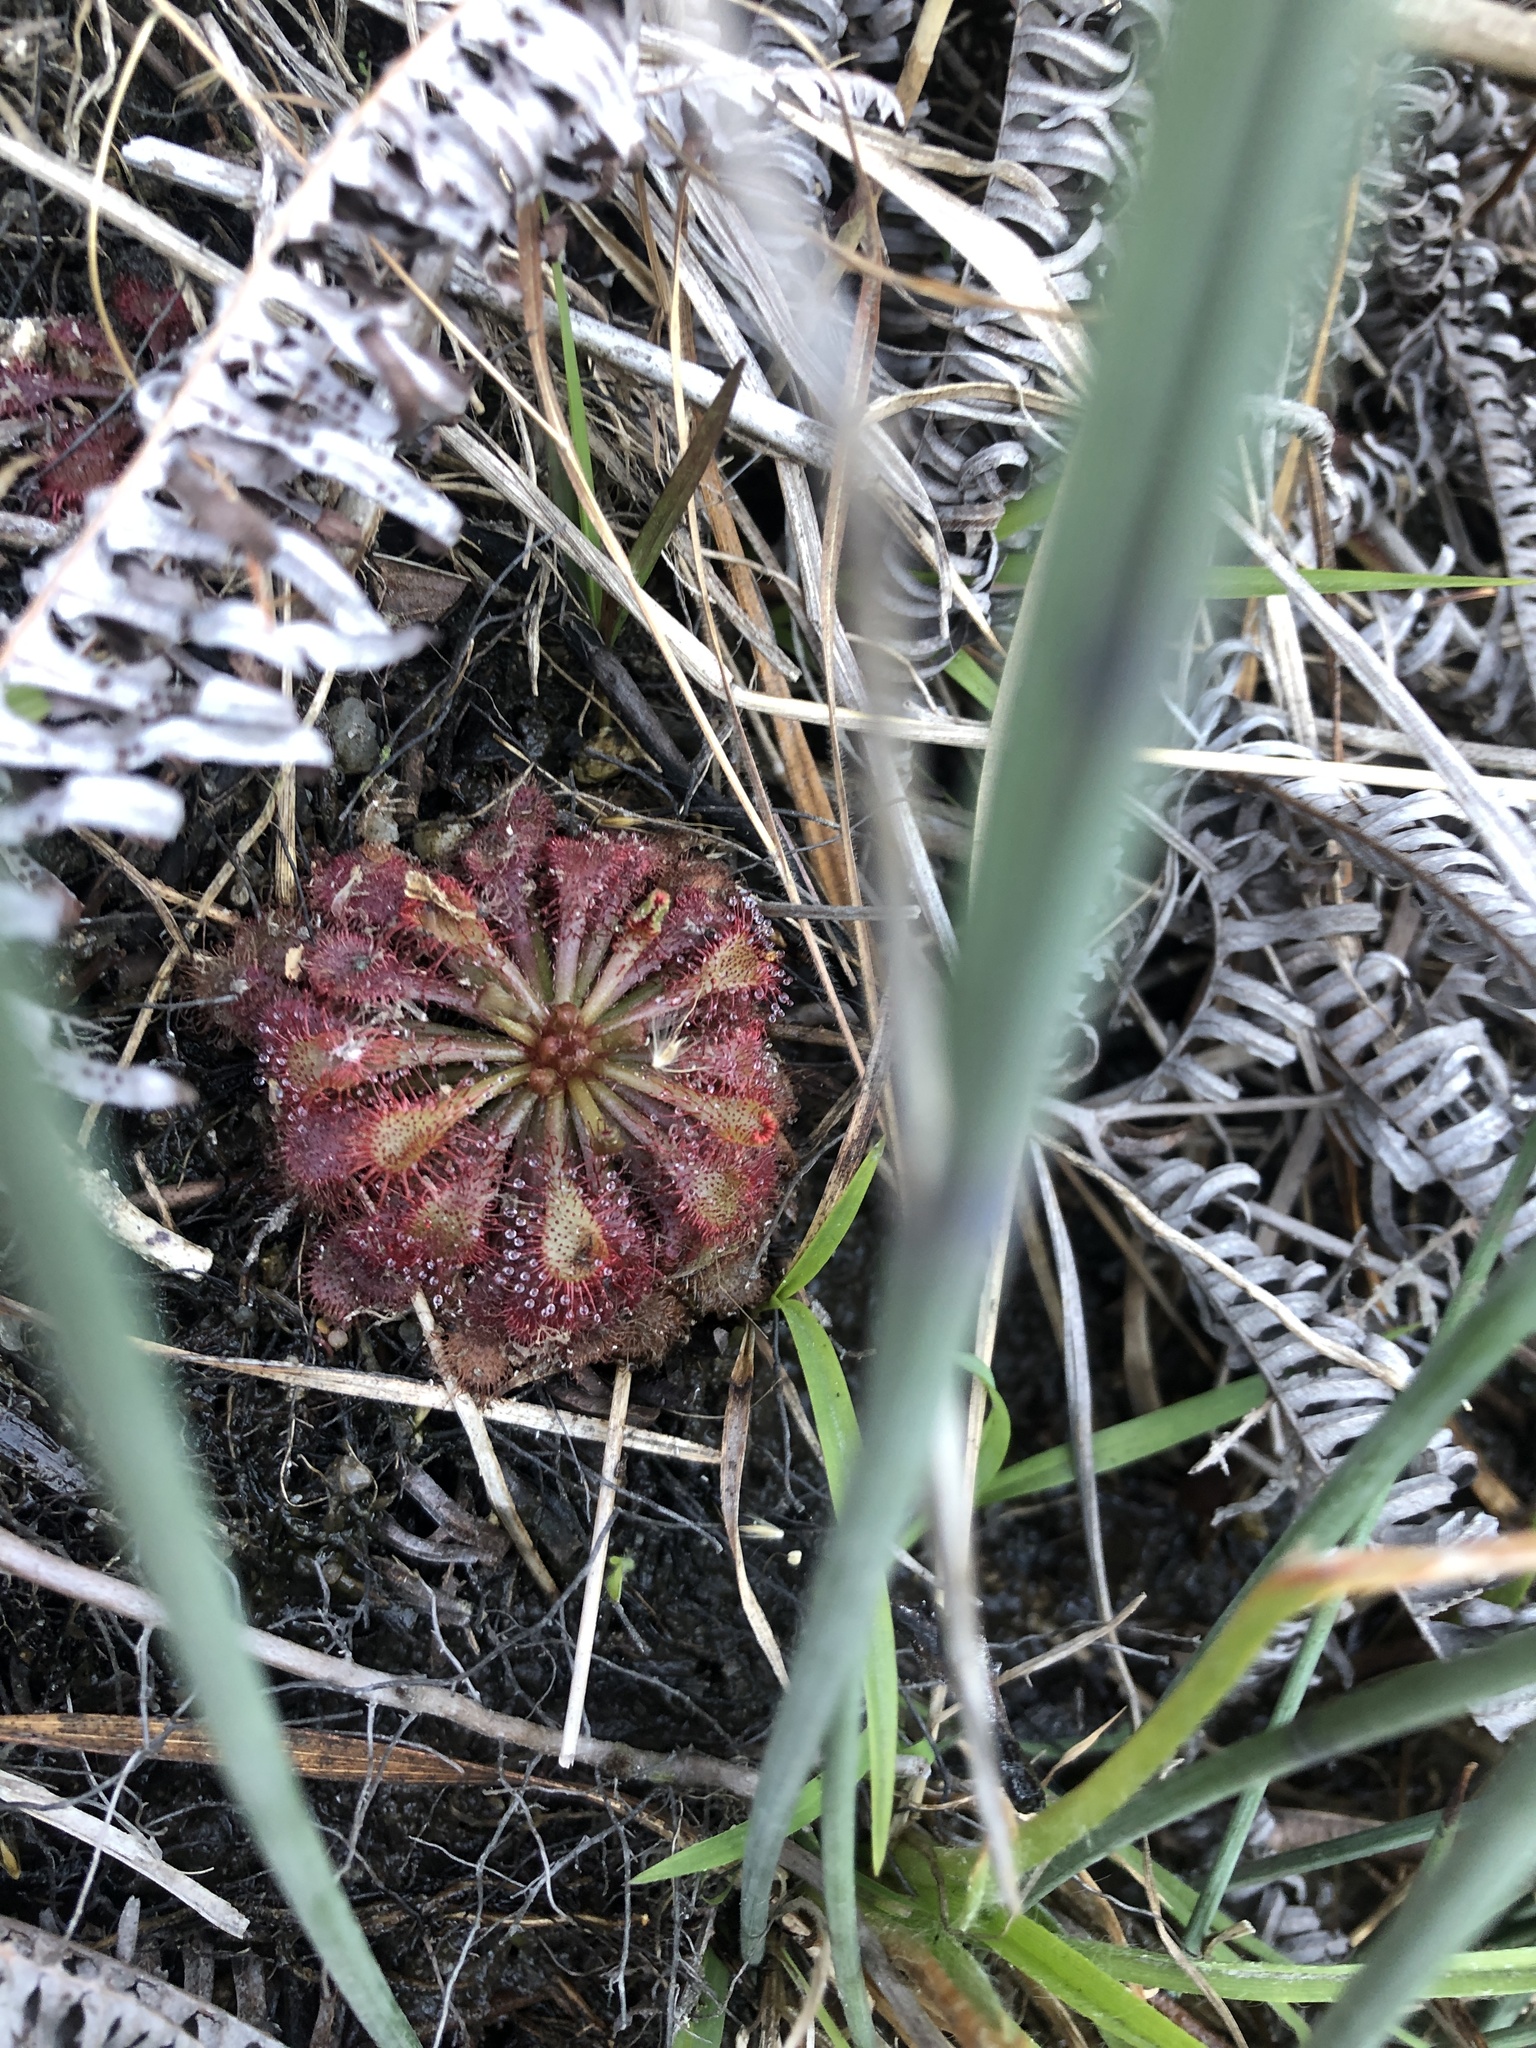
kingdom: Plantae
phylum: Tracheophyta
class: Magnoliopsida
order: Caryophyllales
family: Droseraceae
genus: Drosera
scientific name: Drosera spatulata
